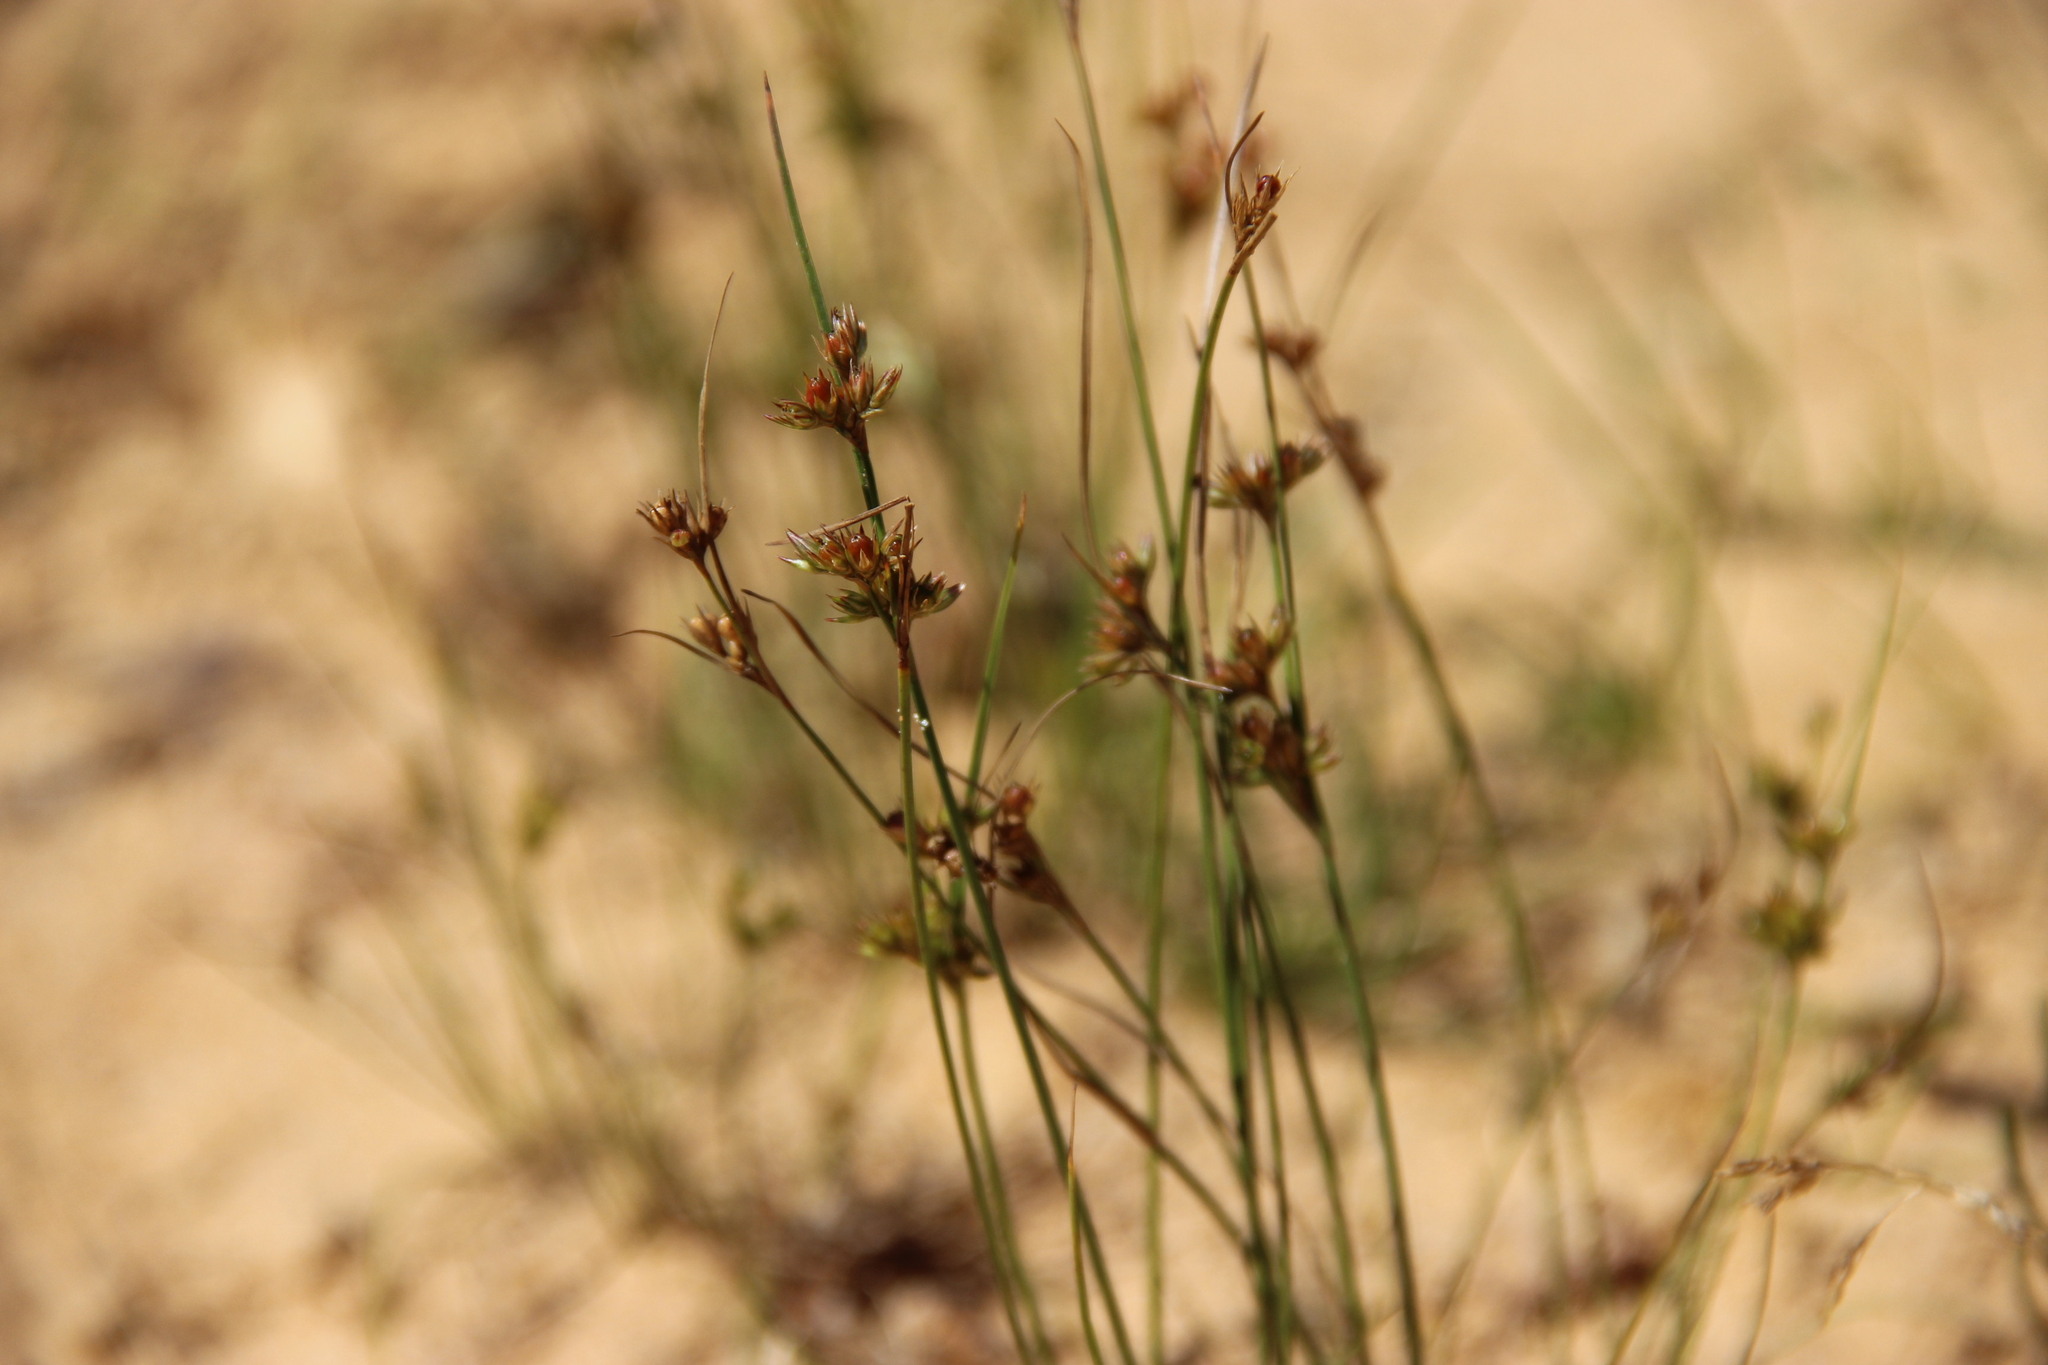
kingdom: Plantae
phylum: Tracheophyta
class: Liliopsida
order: Poales
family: Juncaceae
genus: Juncus
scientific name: Juncus tenuis
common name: Slender rush
